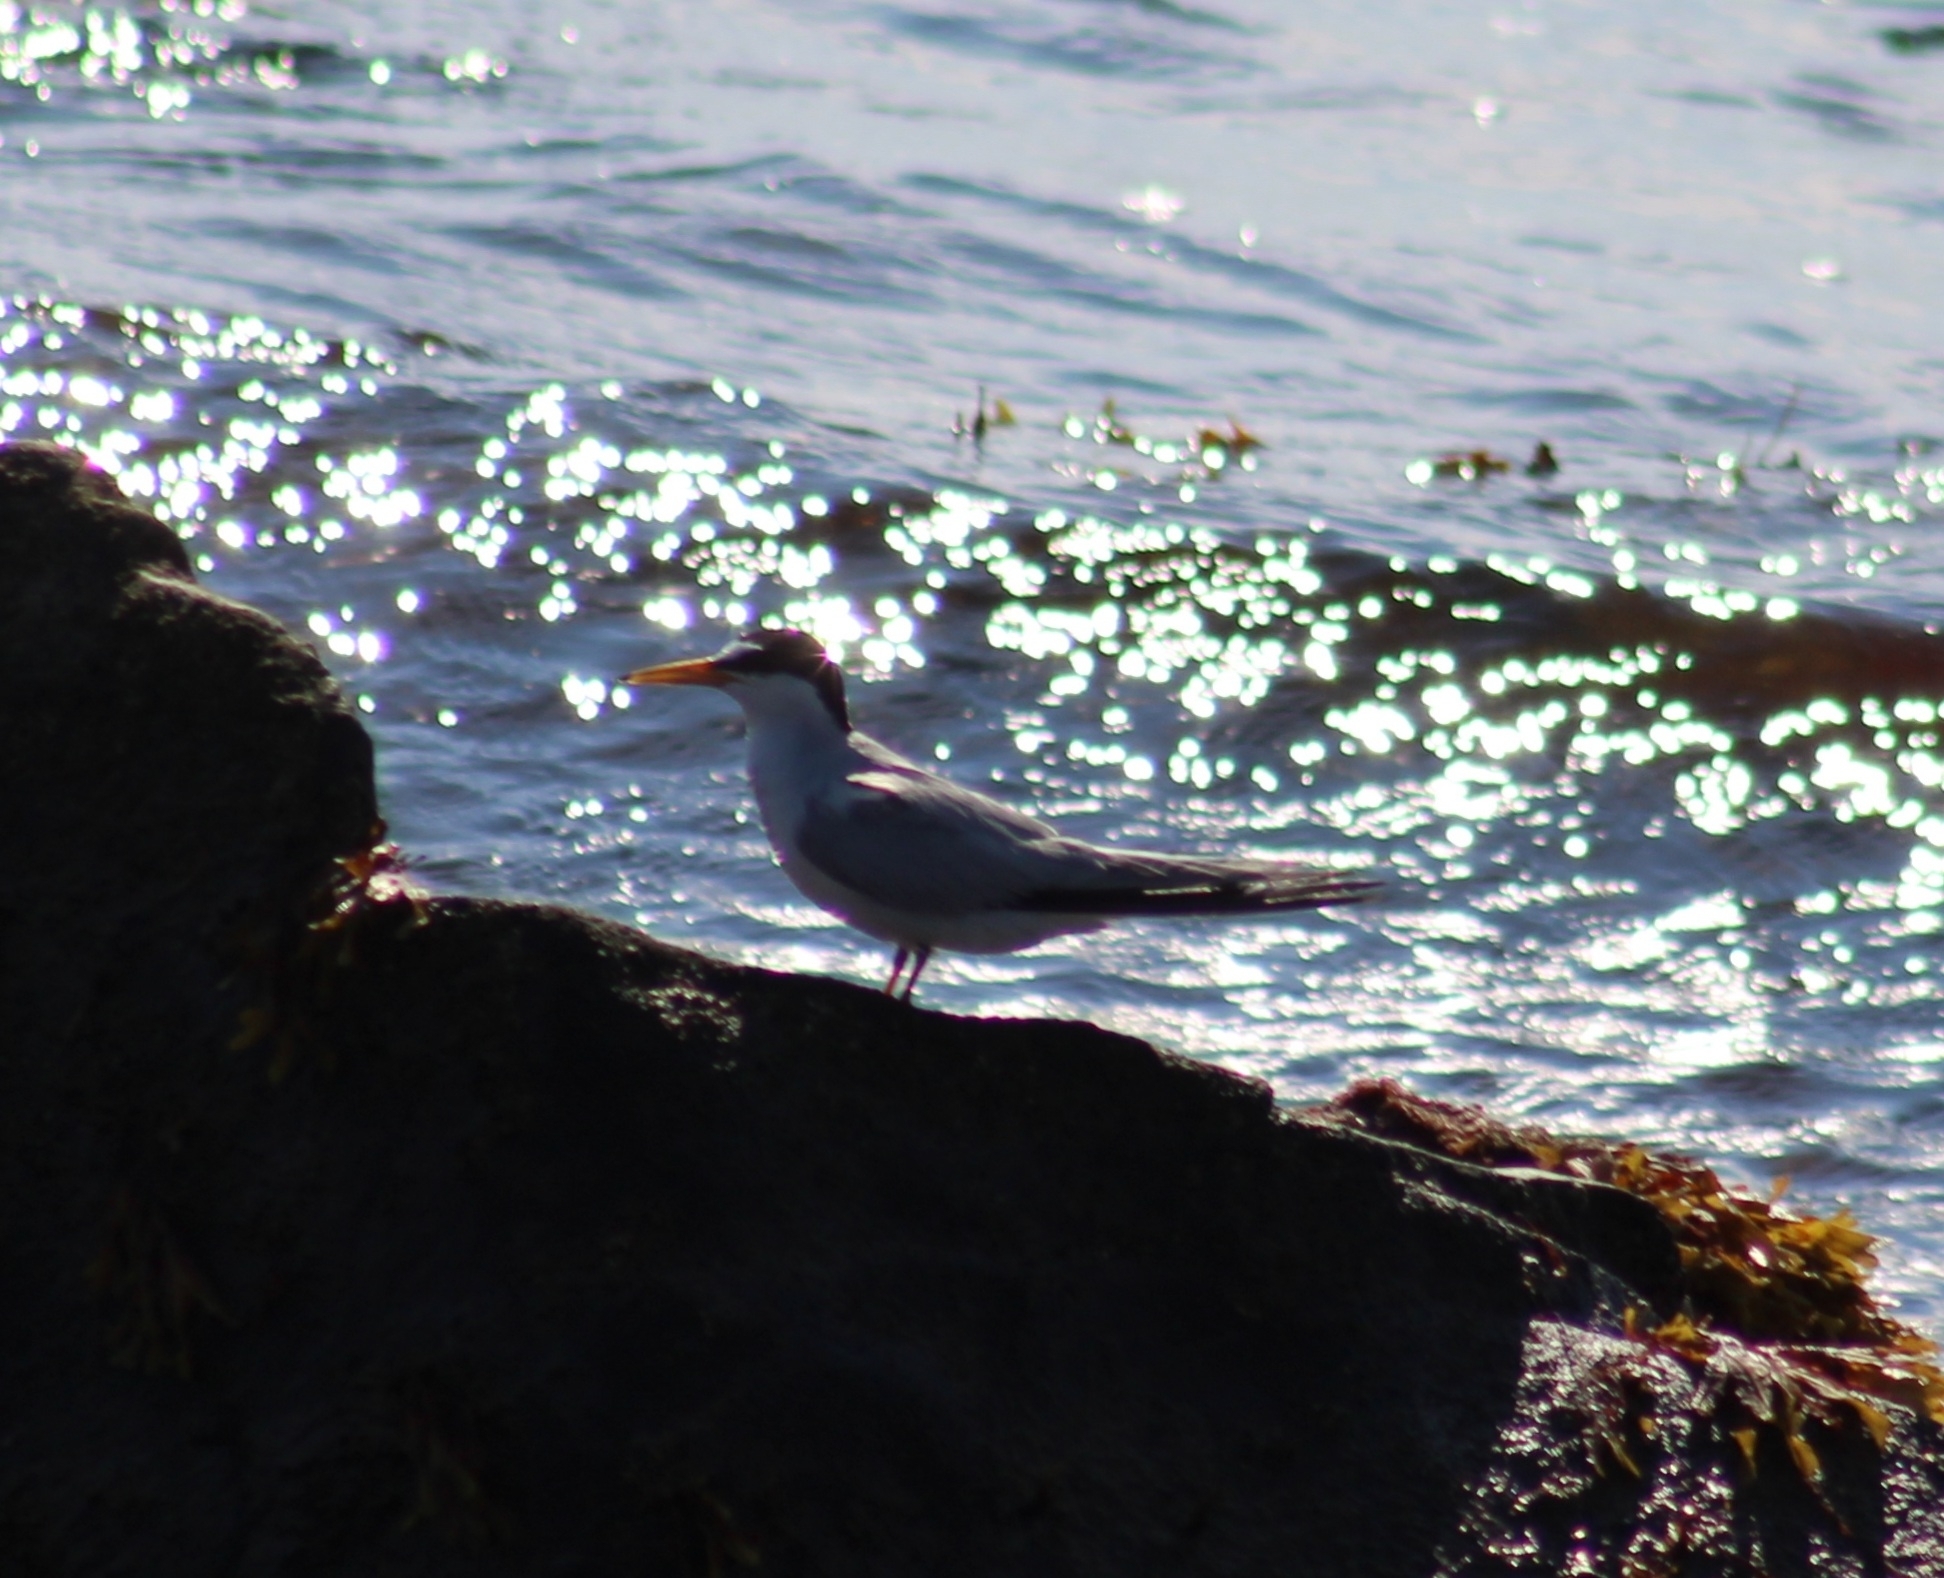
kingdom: Animalia
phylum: Chordata
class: Aves
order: Charadriiformes
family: Laridae
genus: Sternula
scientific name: Sternula antillarum
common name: Least tern
